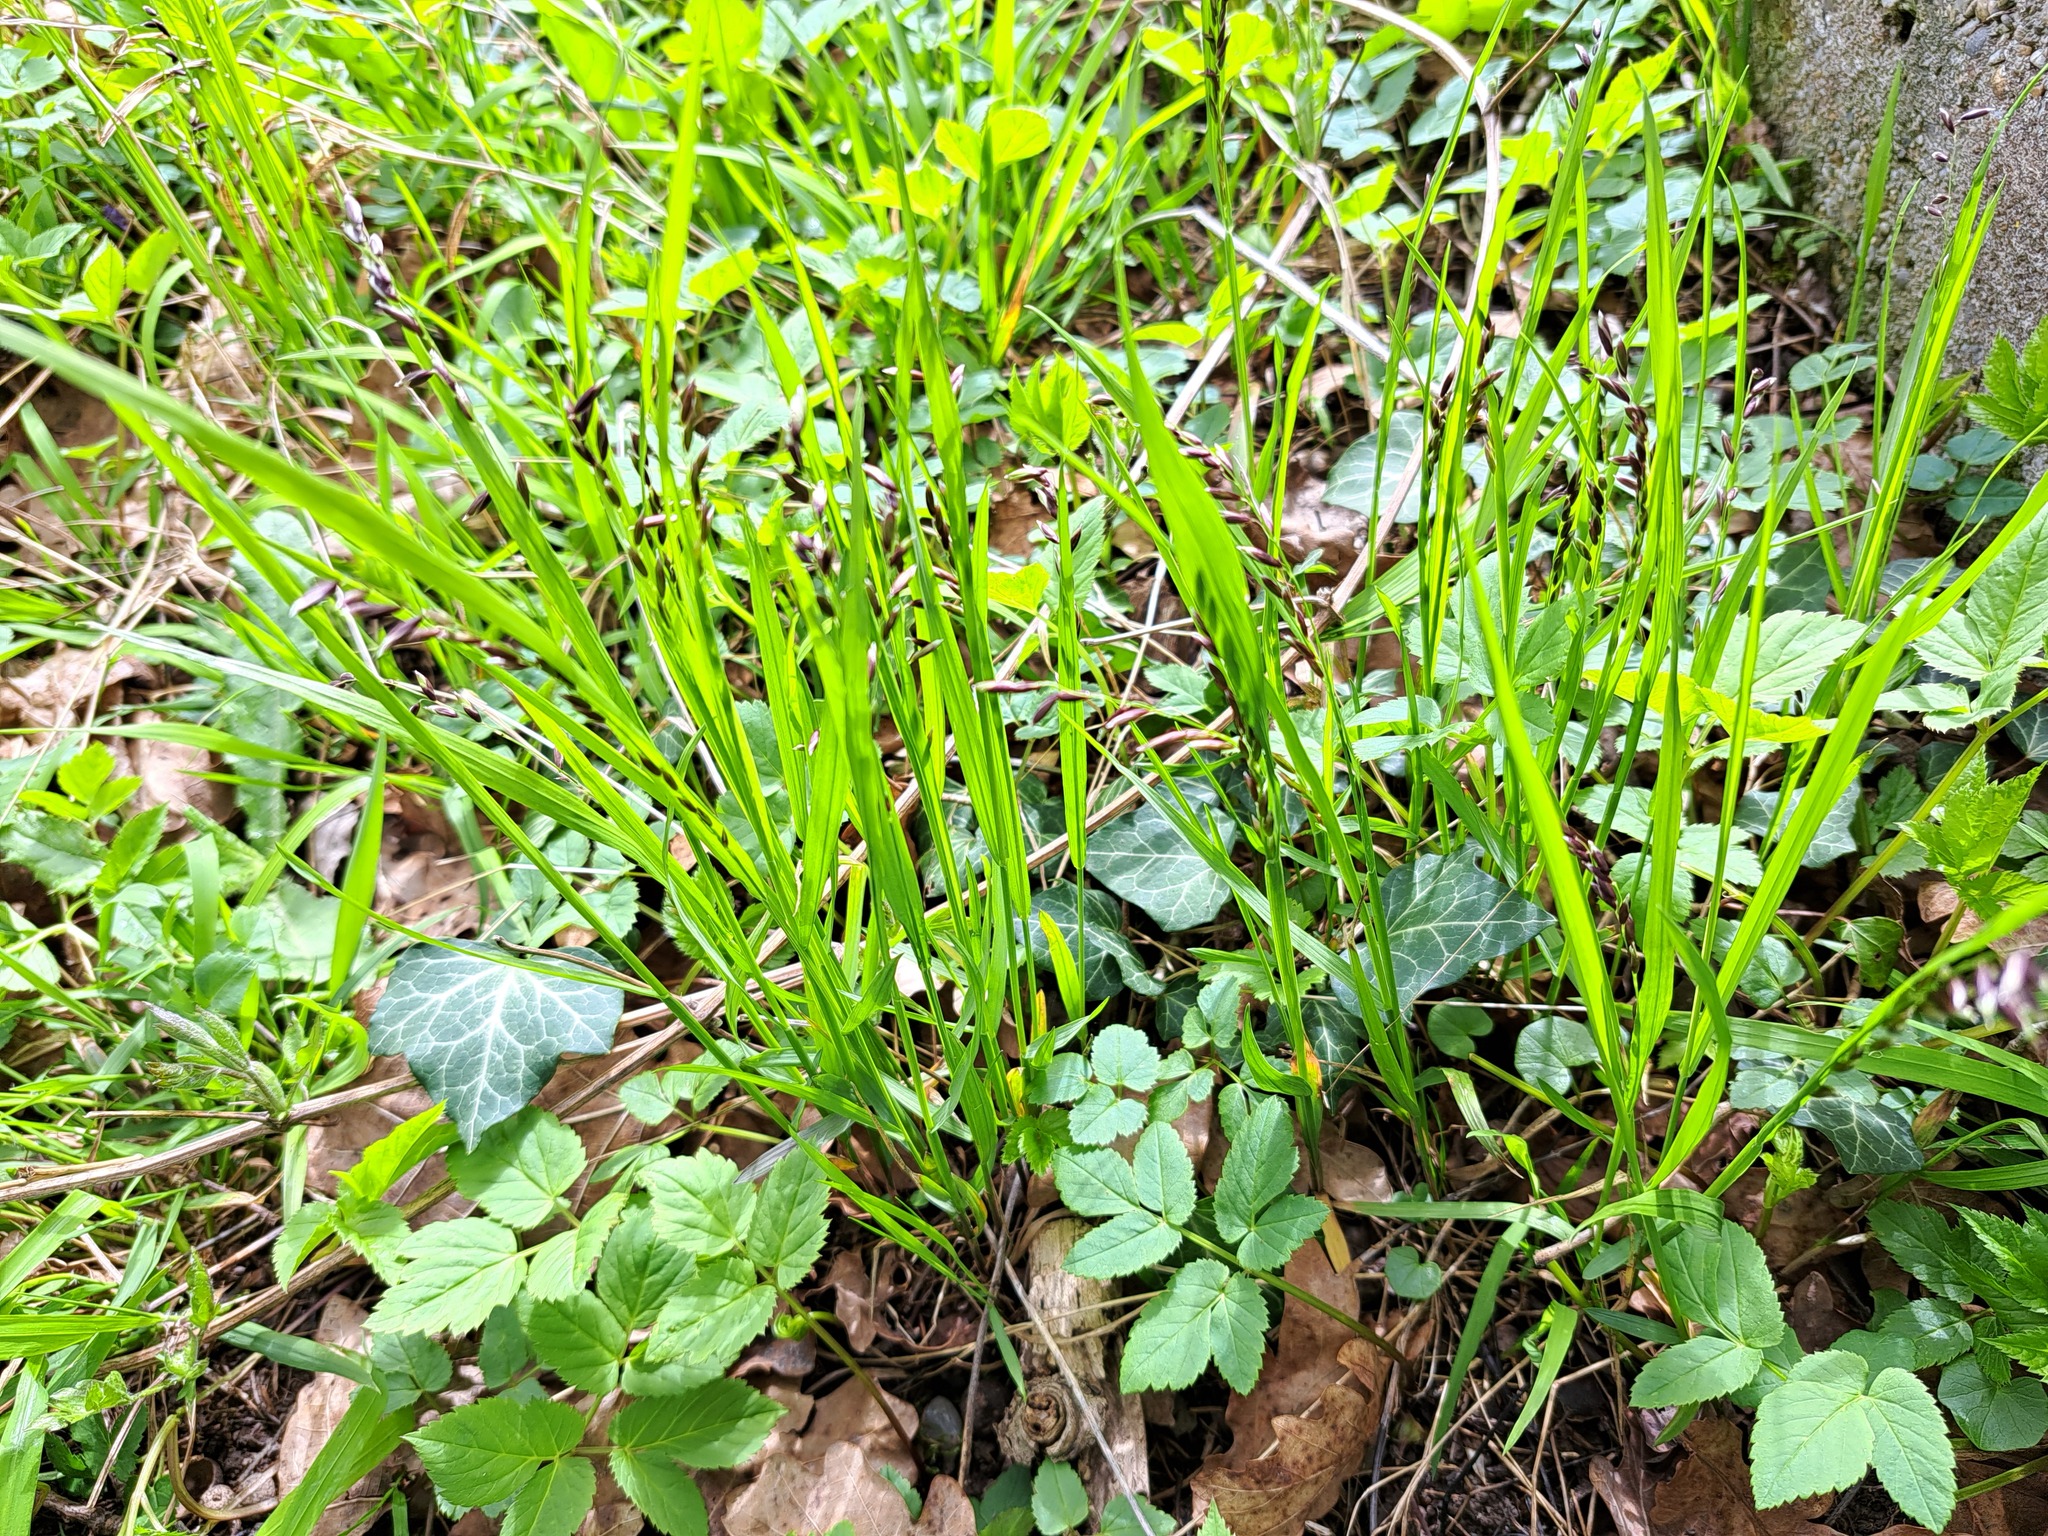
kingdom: Plantae
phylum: Tracheophyta
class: Liliopsida
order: Poales
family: Poaceae
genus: Melica
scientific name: Melica nutans
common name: Mountain melick
